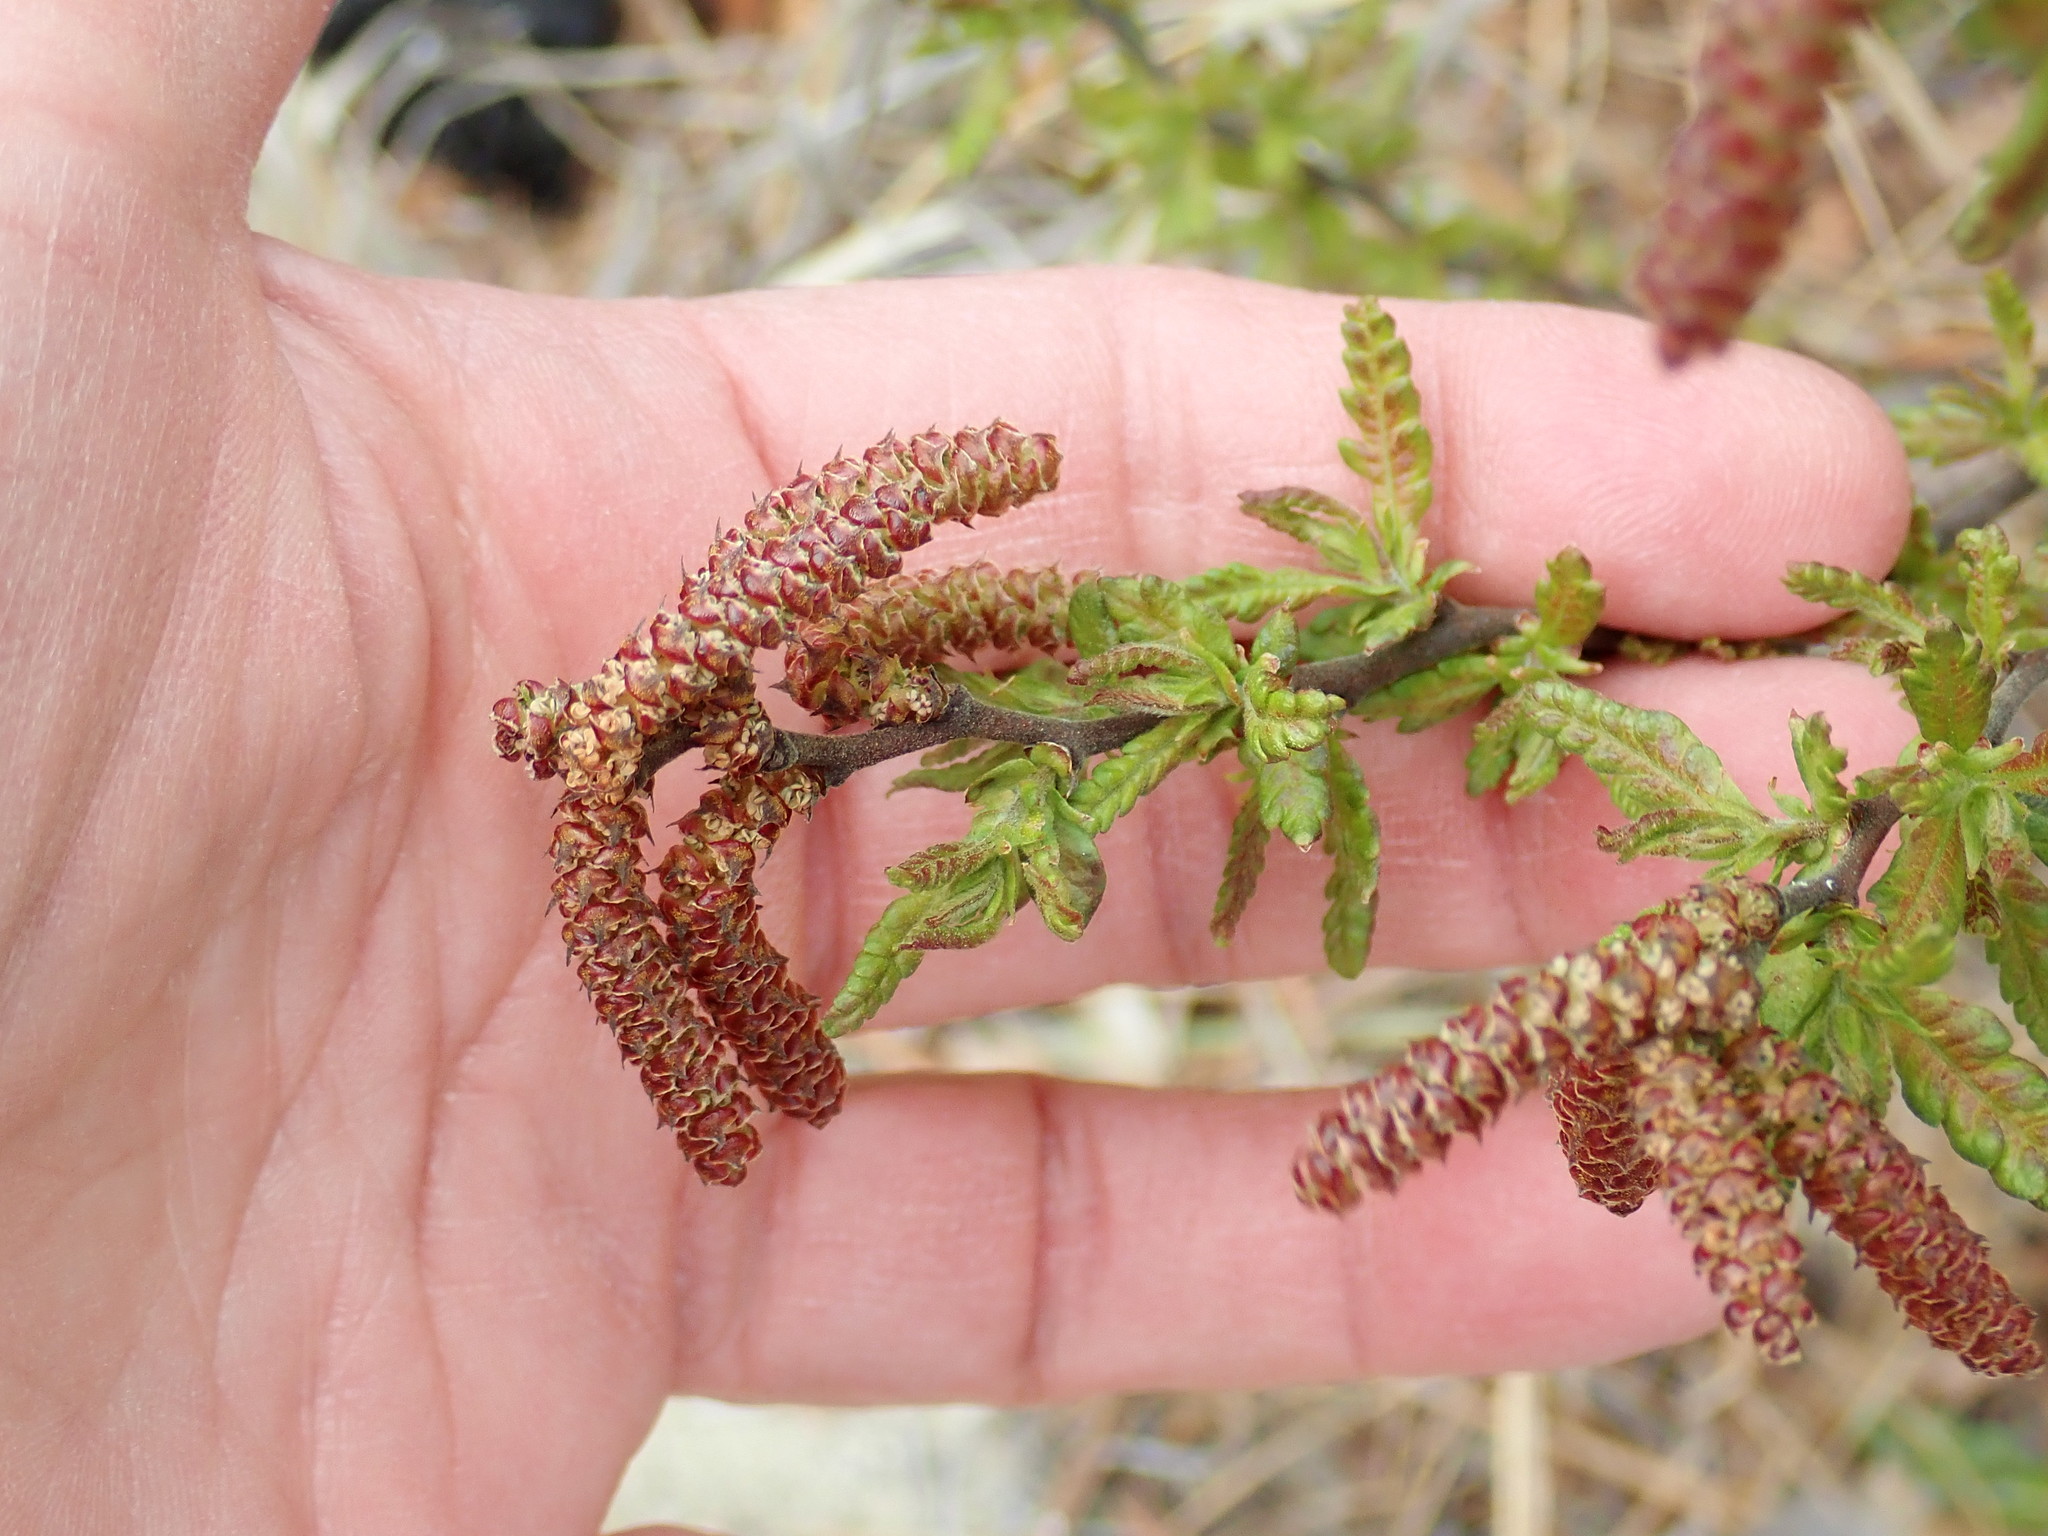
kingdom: Plantae
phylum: Tracheophyta
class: Magnoliopsida
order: Fagales
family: Myricaceae
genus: Comptonia
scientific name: Comptonia peregrina
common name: Sweet-fern
